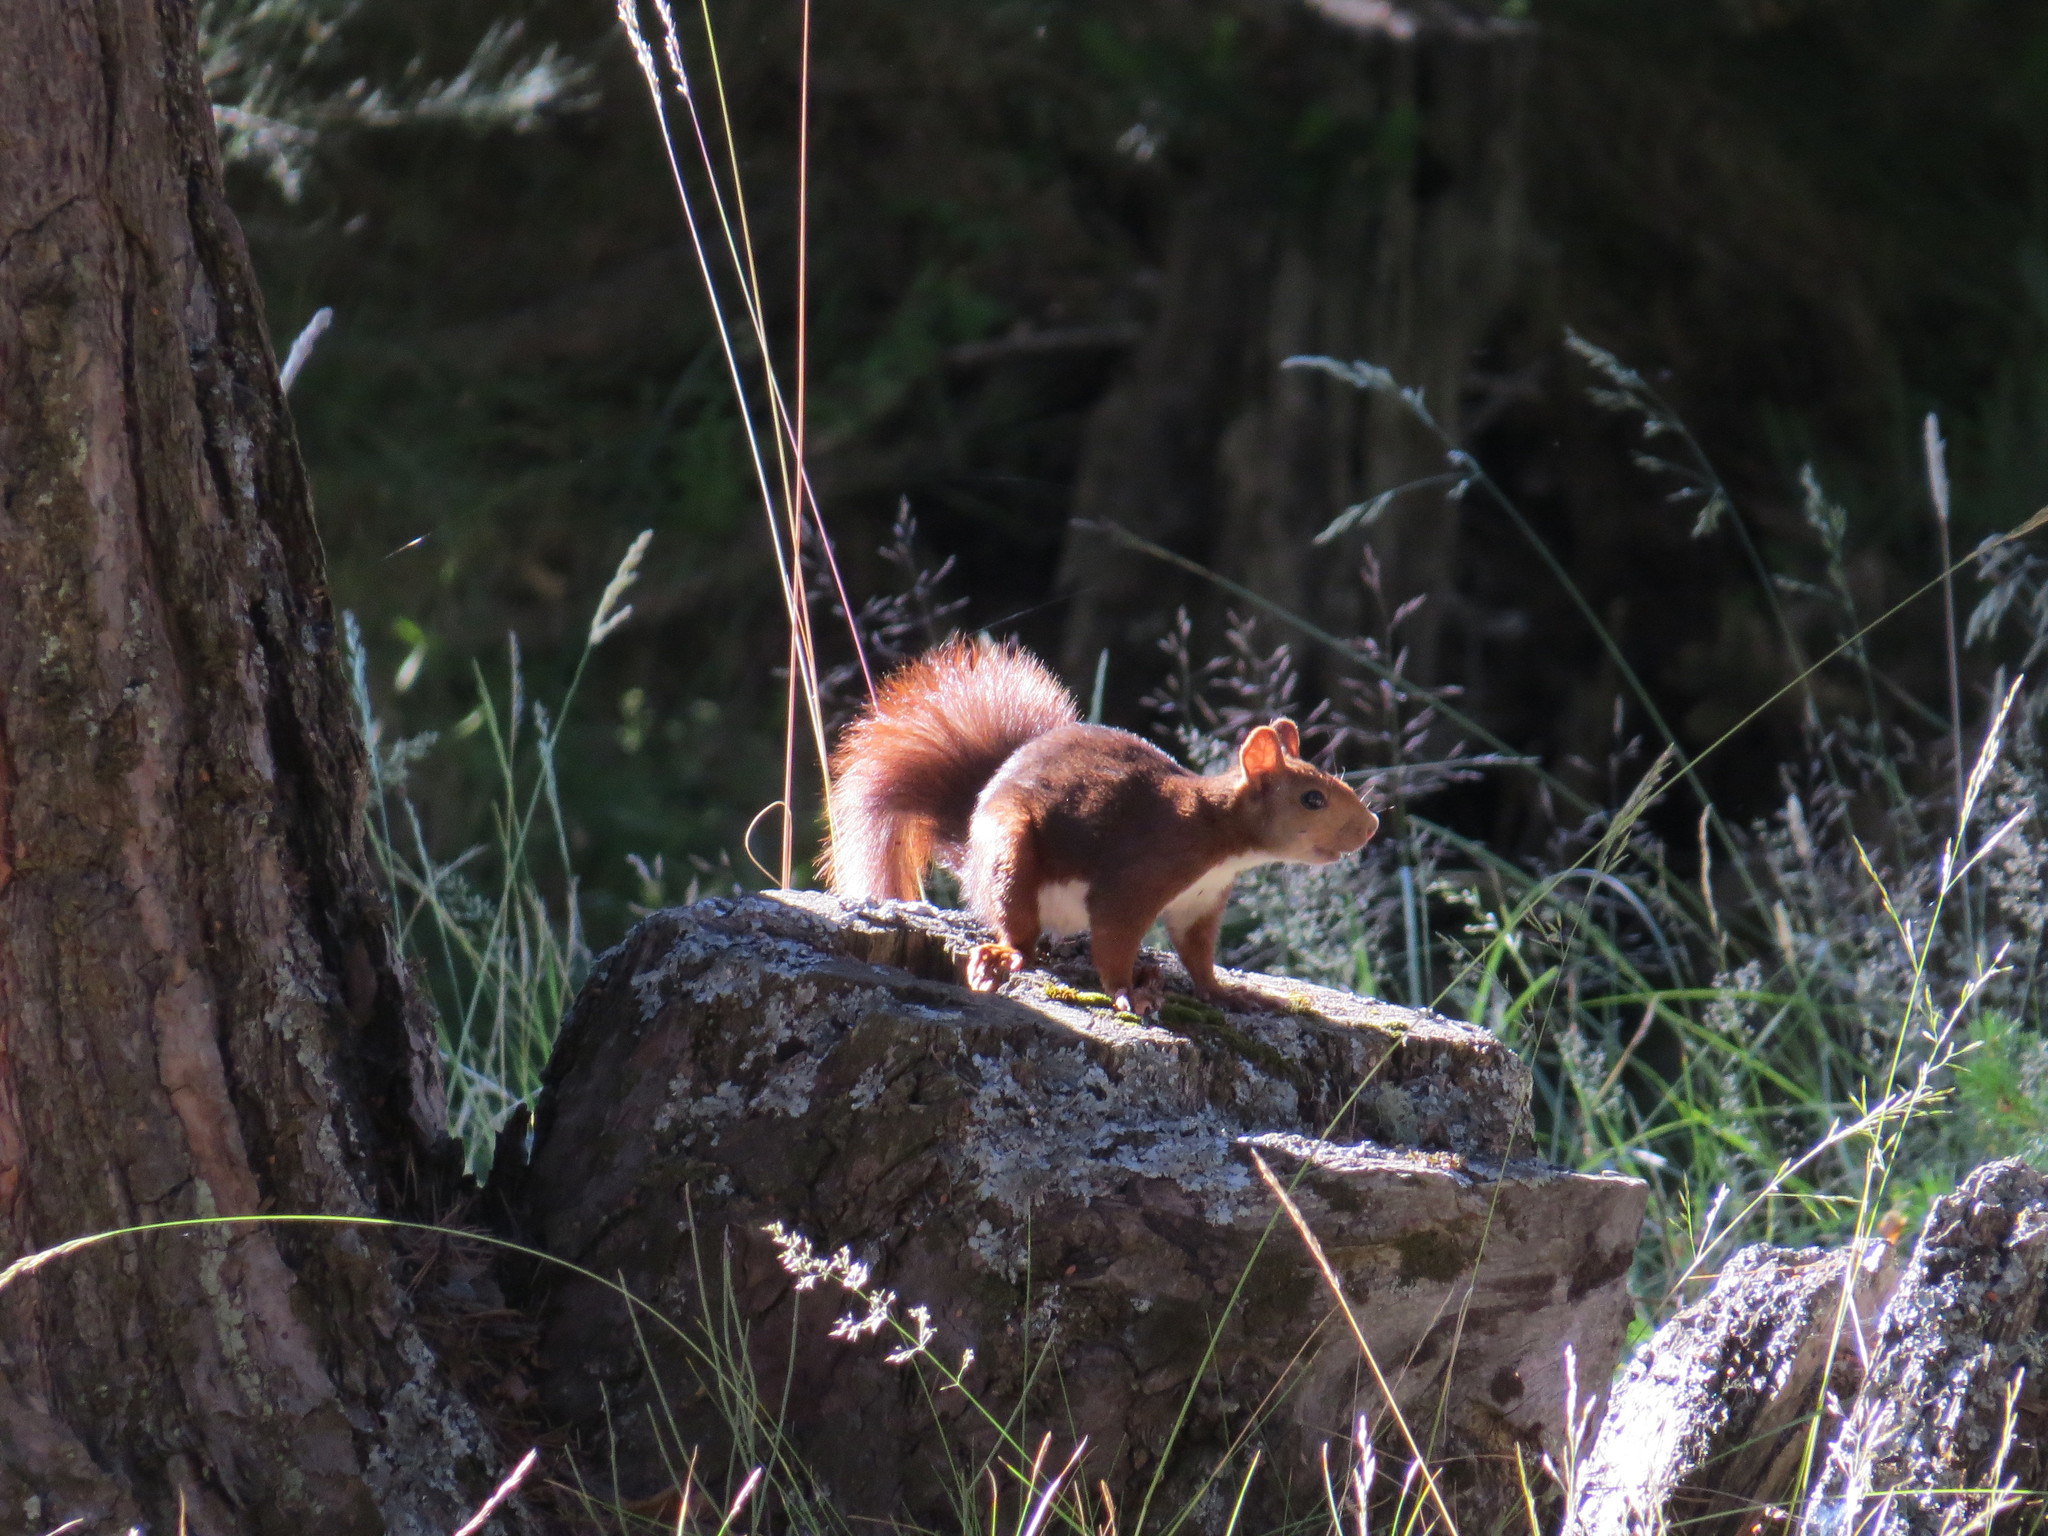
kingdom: Animalia
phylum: Chordata
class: Mammalia
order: Rodentia
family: Sciuridae
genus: Sciurus
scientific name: Sciurus vulgaris
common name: Eurasian red squirrel
